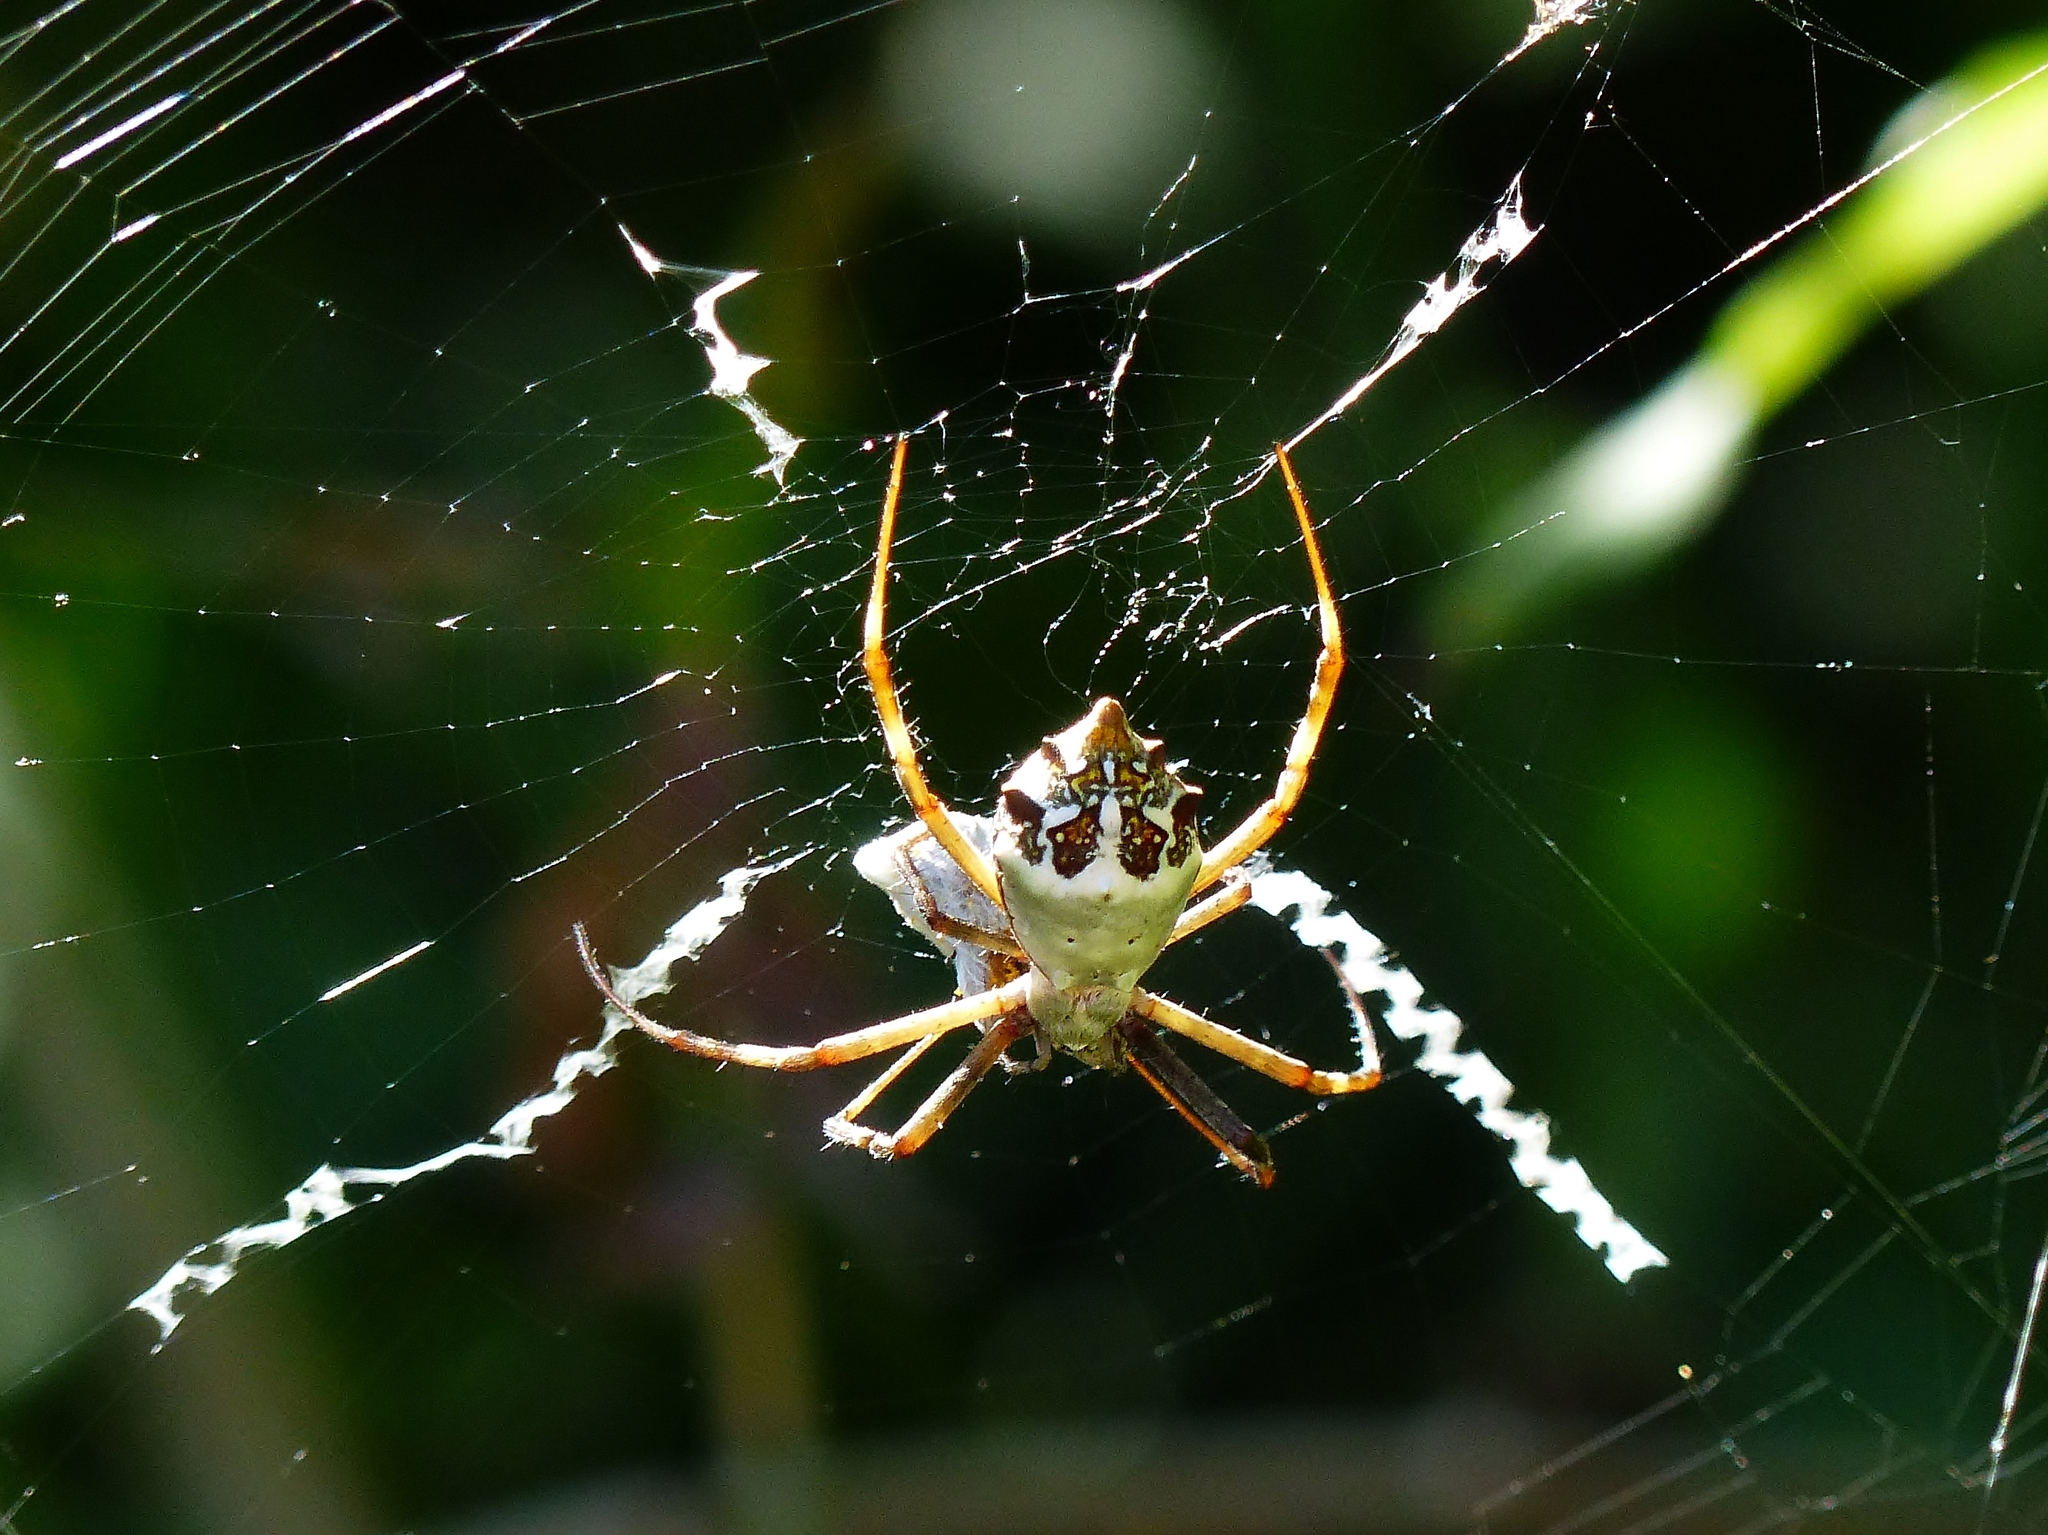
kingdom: Animalia
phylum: Arthropoda
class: Arachnida
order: Araneae
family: Araneidae
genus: Argiope
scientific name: Argiope argentata
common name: Orb weavers
